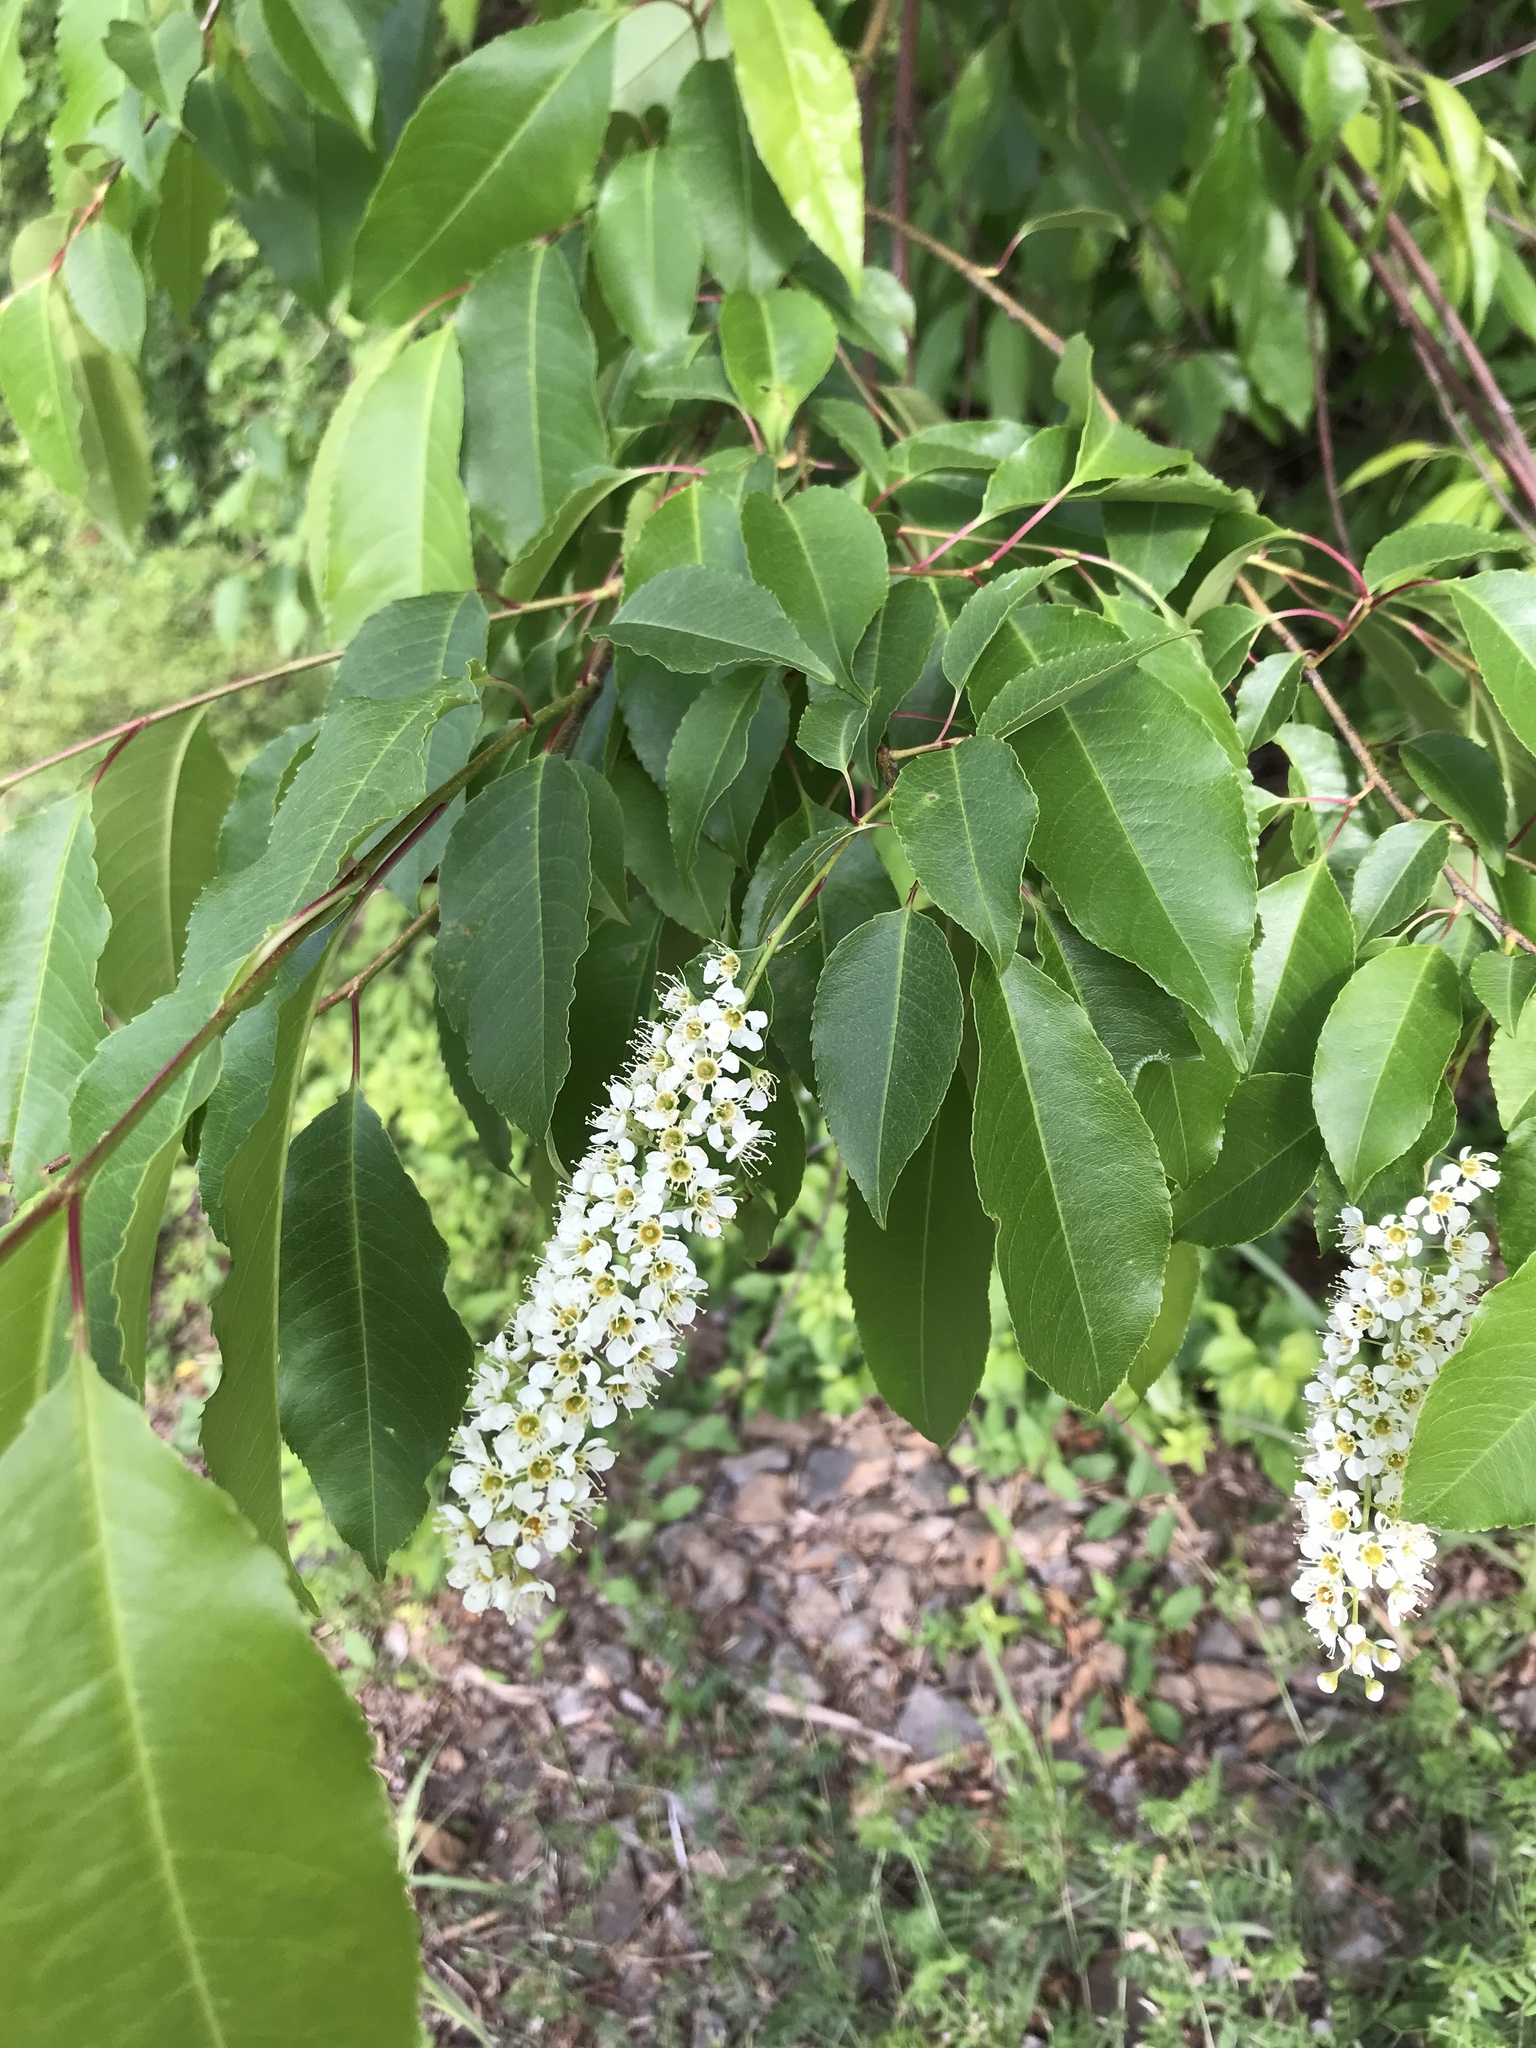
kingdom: Plantae
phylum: Tracheophyta
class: Magnoliopsida
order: Rosales
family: Rosaceae
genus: Prunus
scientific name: Prunus serotina
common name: Black cherry
